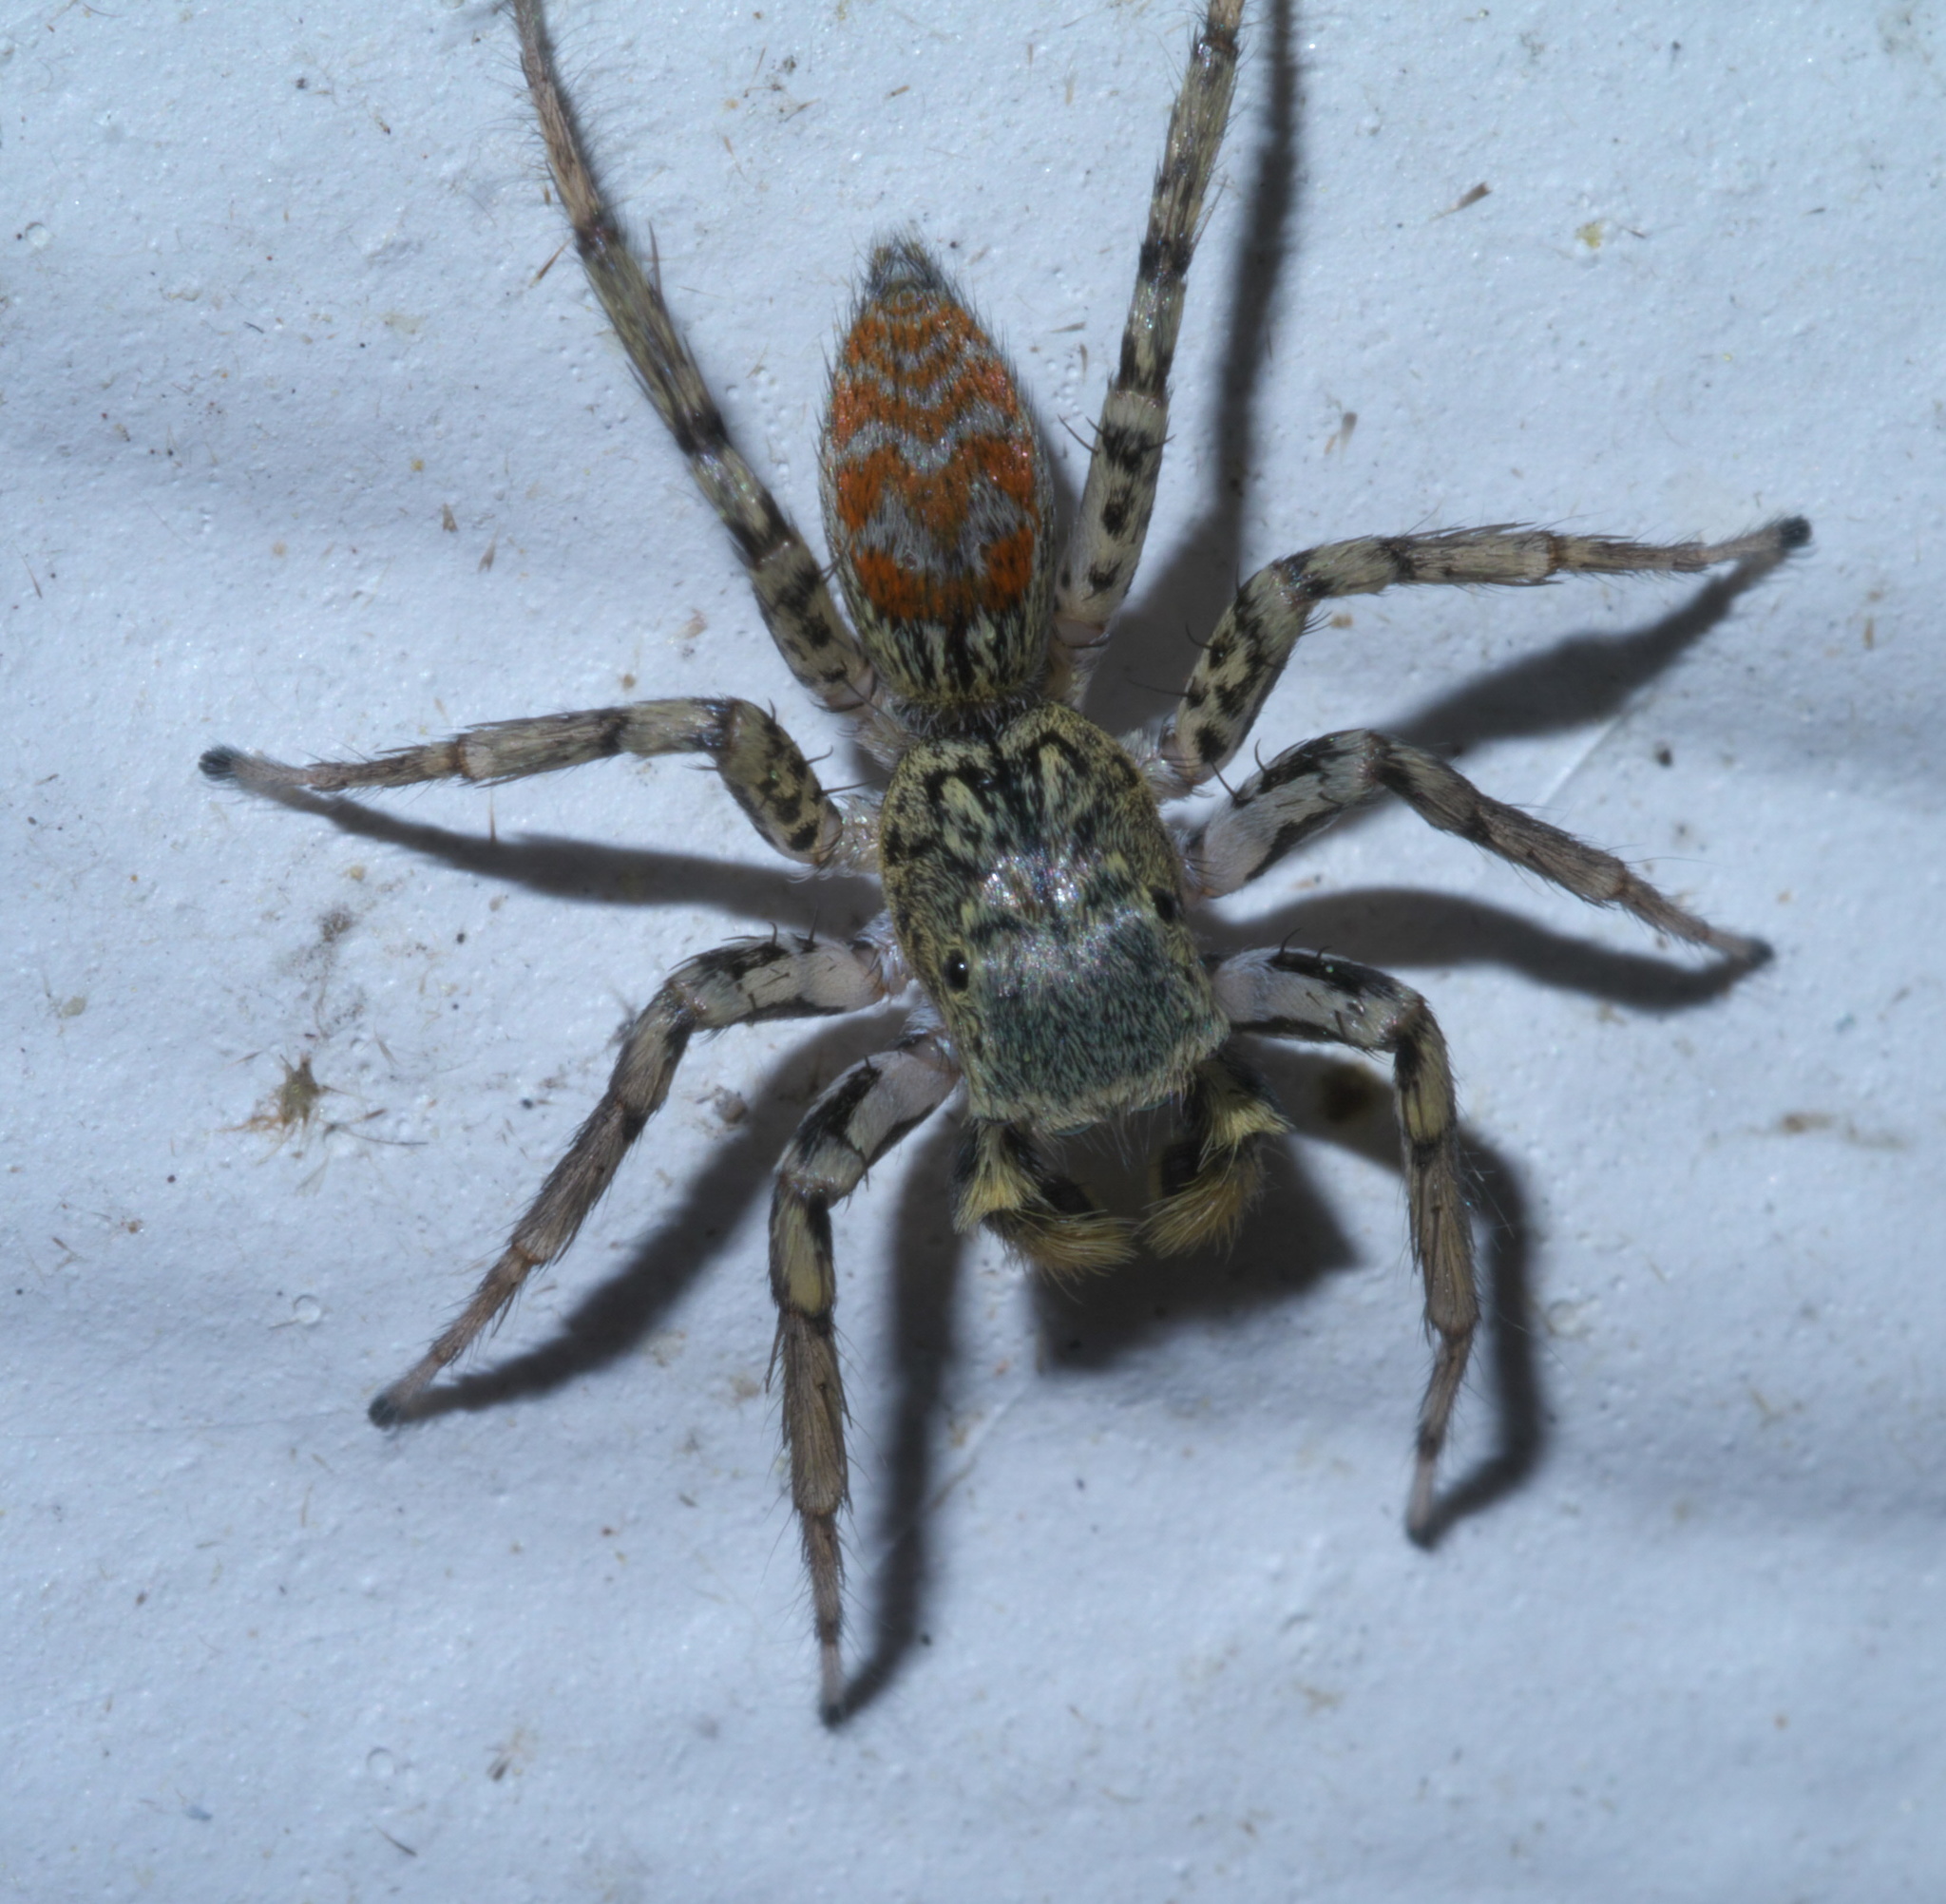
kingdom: Animalia
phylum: Arthropoda
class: Arachnida
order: Araneae
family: Salticidae
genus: Maevia
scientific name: Maevia inclemens
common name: Dimorphic jumper
